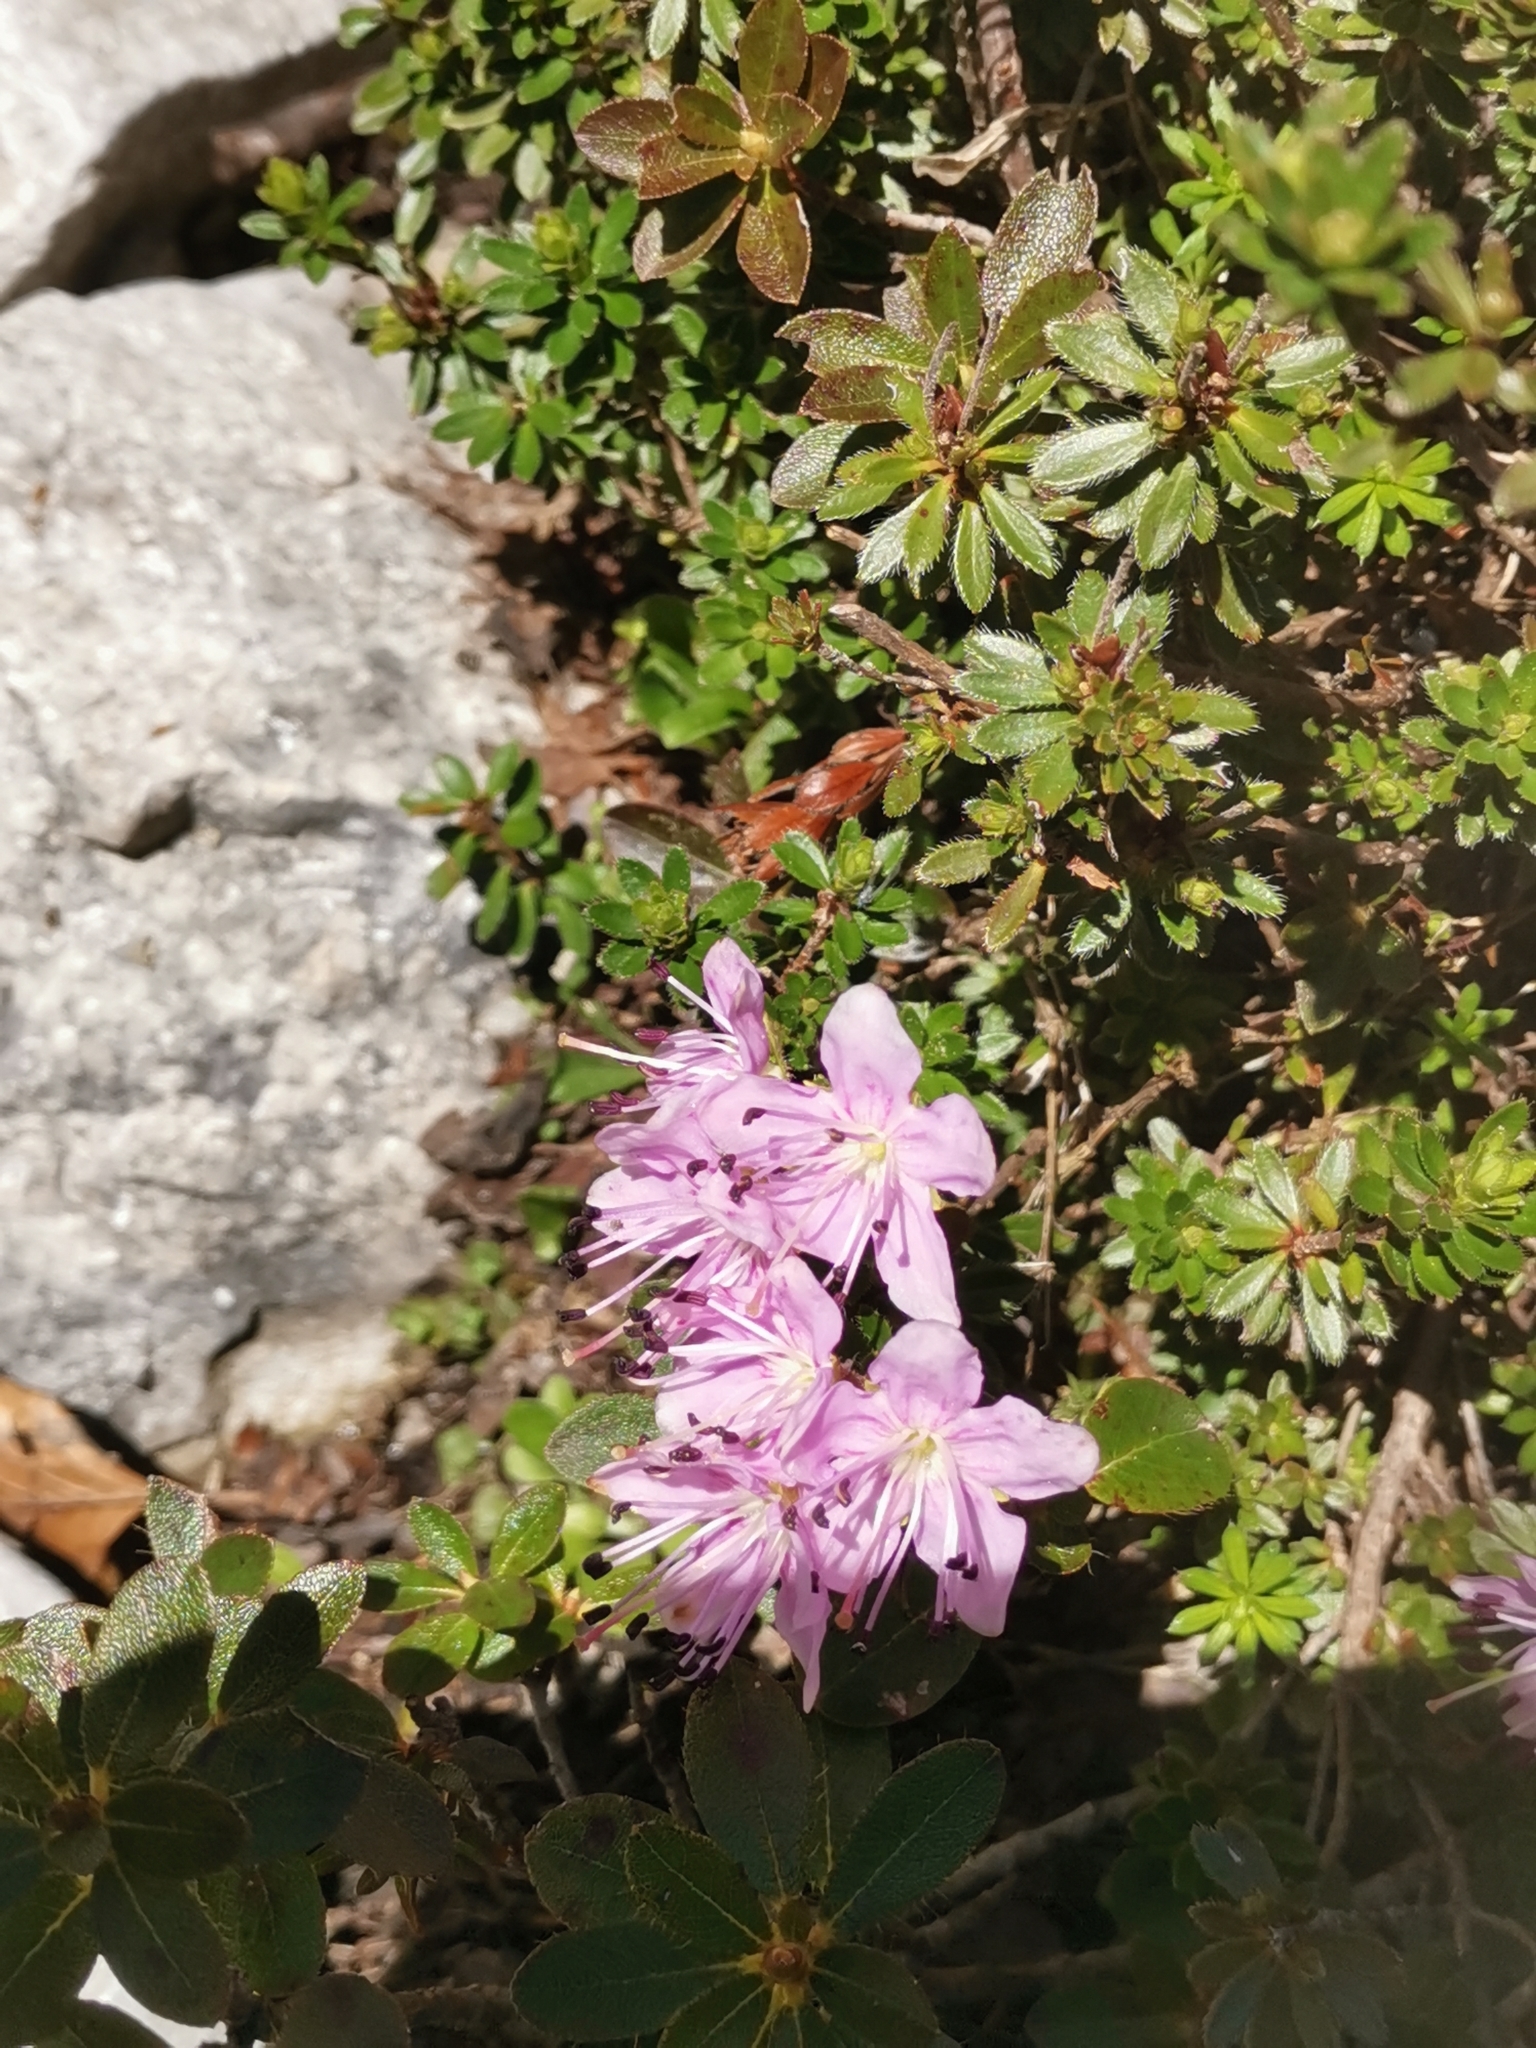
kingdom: Plantae
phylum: Tracheophyta
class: Magnoliopsida
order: Ericales
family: Ericaceae
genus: Rhodothamnus
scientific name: Rhodothamnus chamaecistus
